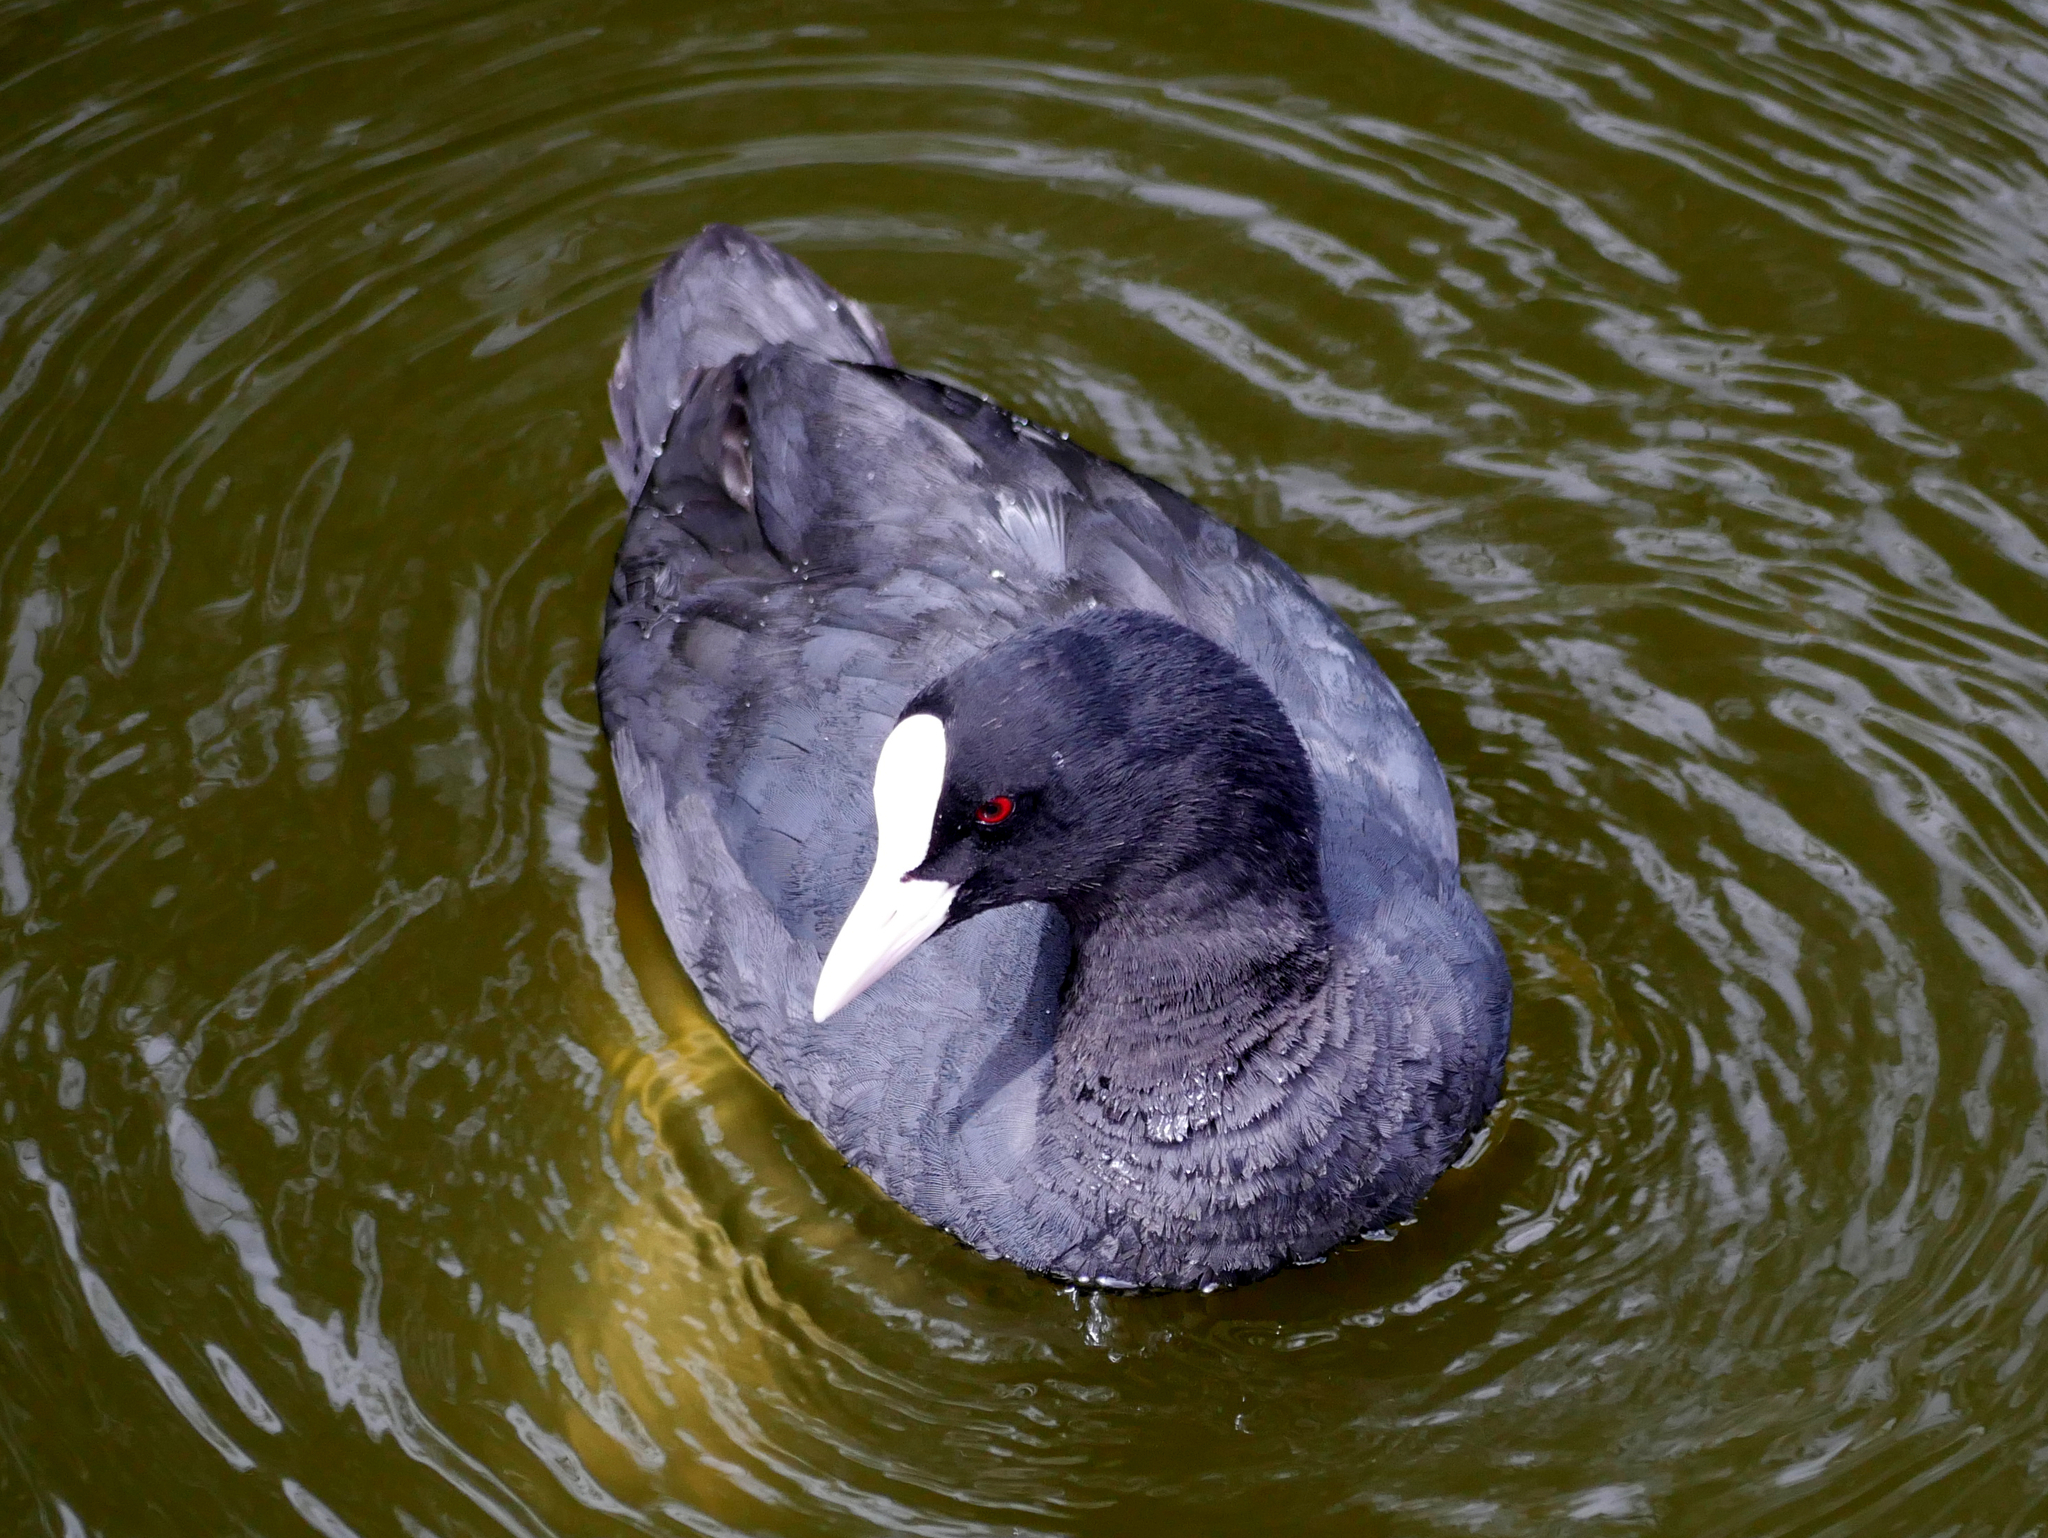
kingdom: Animalia
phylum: Chordata
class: Aves
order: Gruiformes
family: Rallidae
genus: Fulica
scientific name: Fulica atra
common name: Eurasian coot
